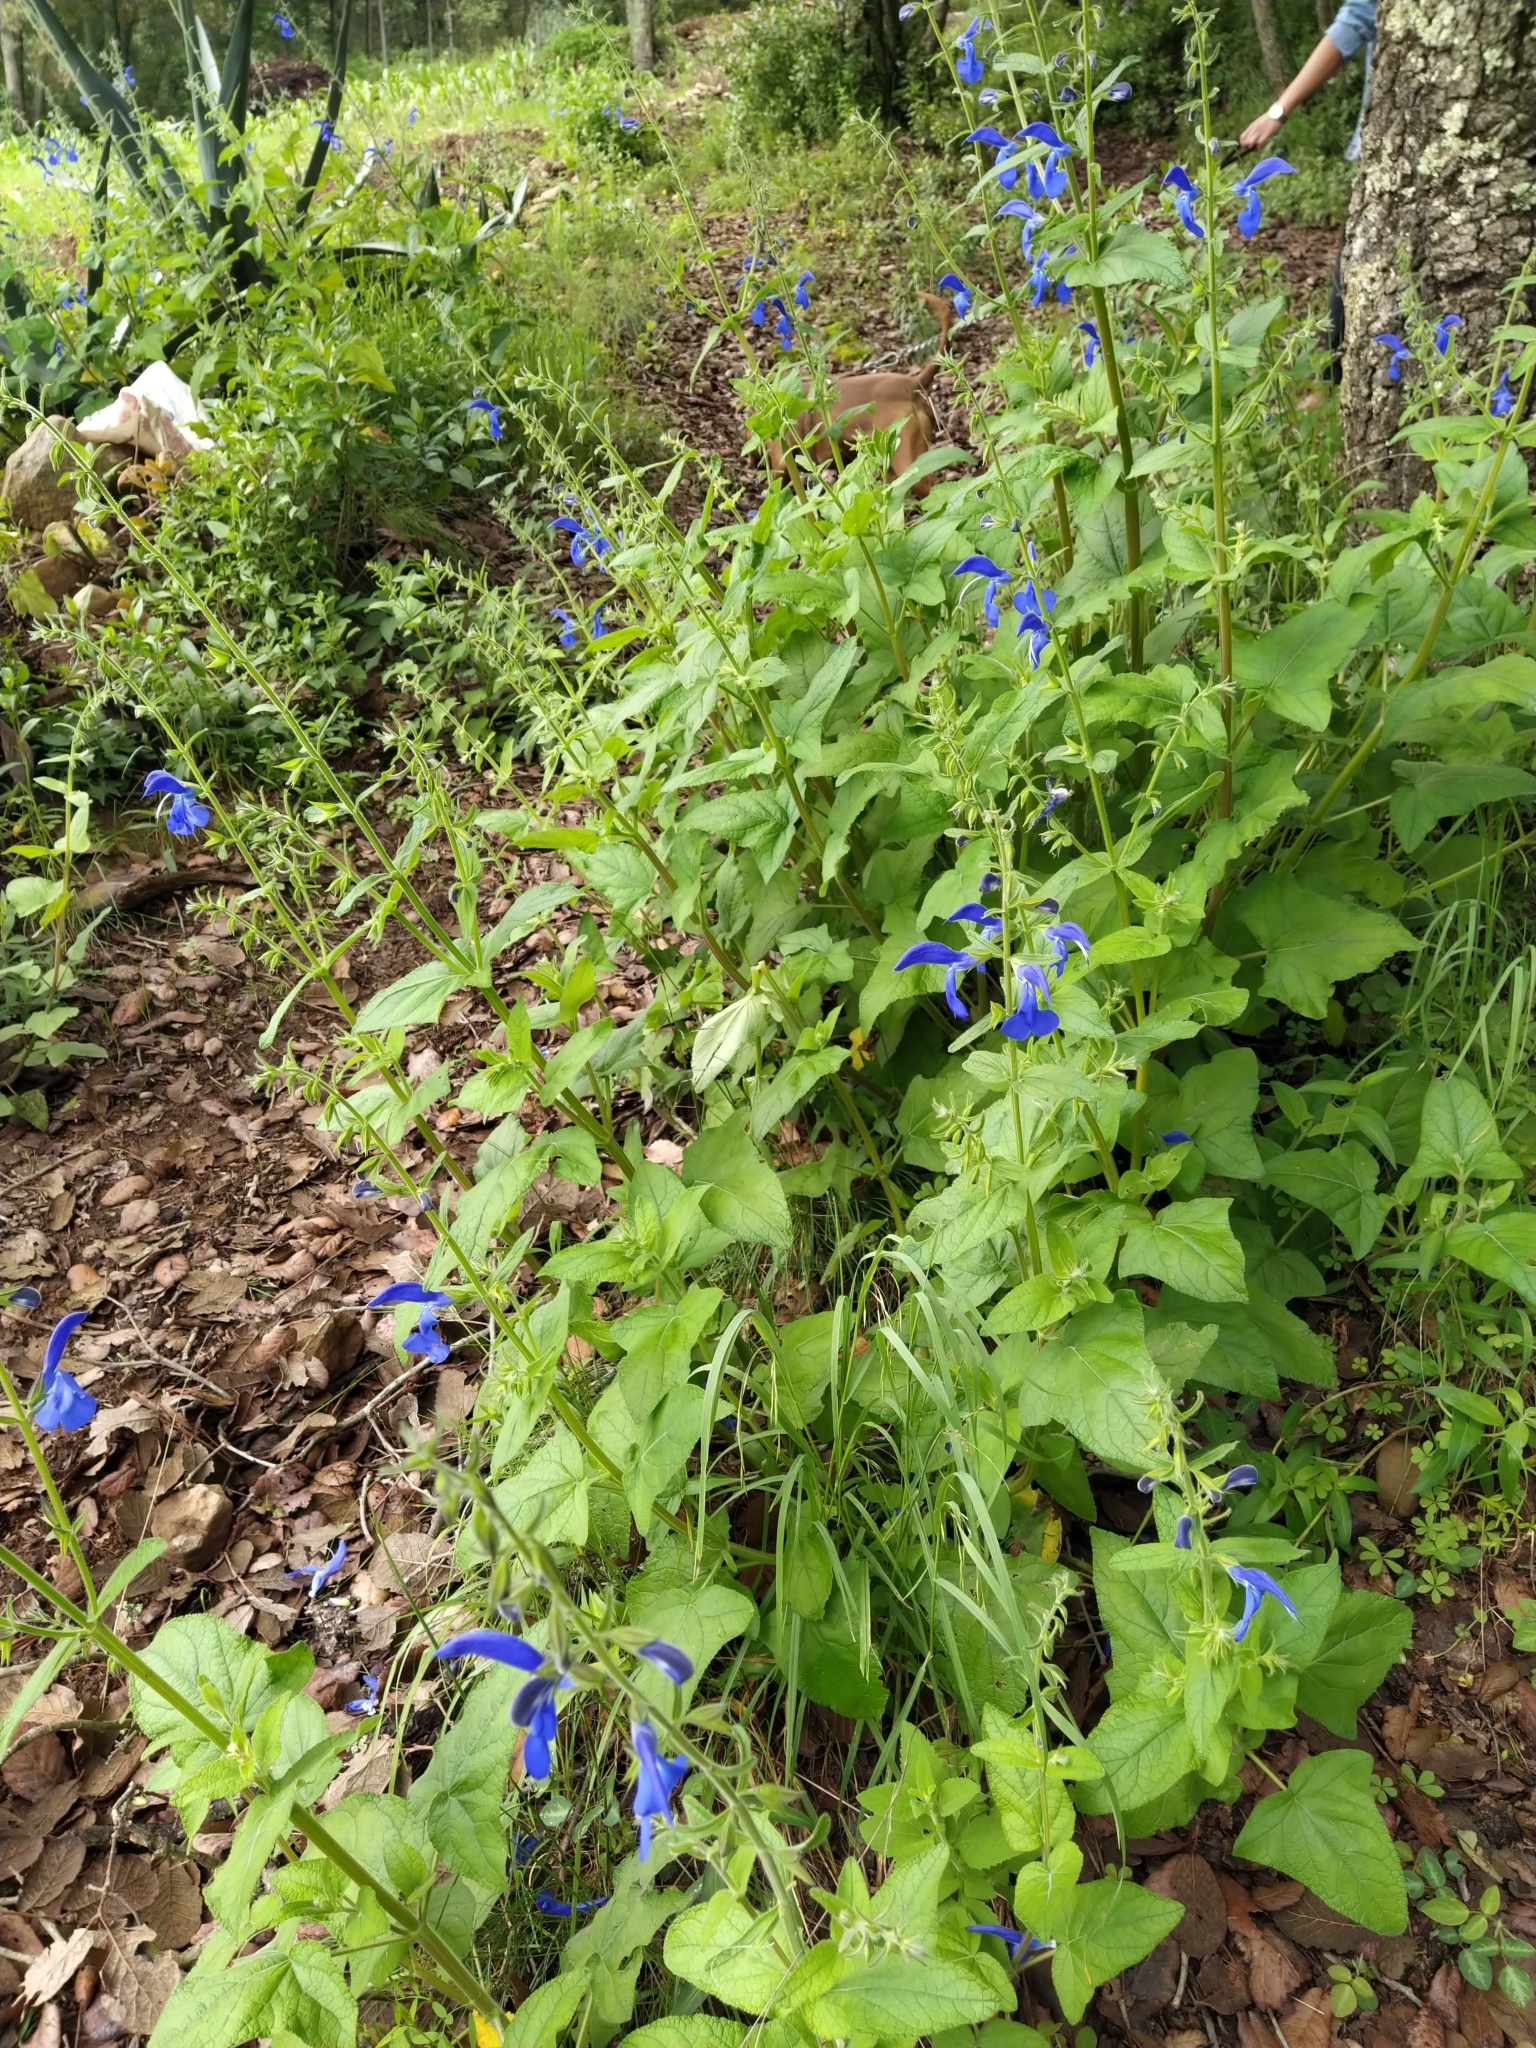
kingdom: Plantae
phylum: Tracheophyta
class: Magnoliopsida
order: Lamiales
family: Lamiaceae
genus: Salvia
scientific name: Salvia patens
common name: Blue sage
